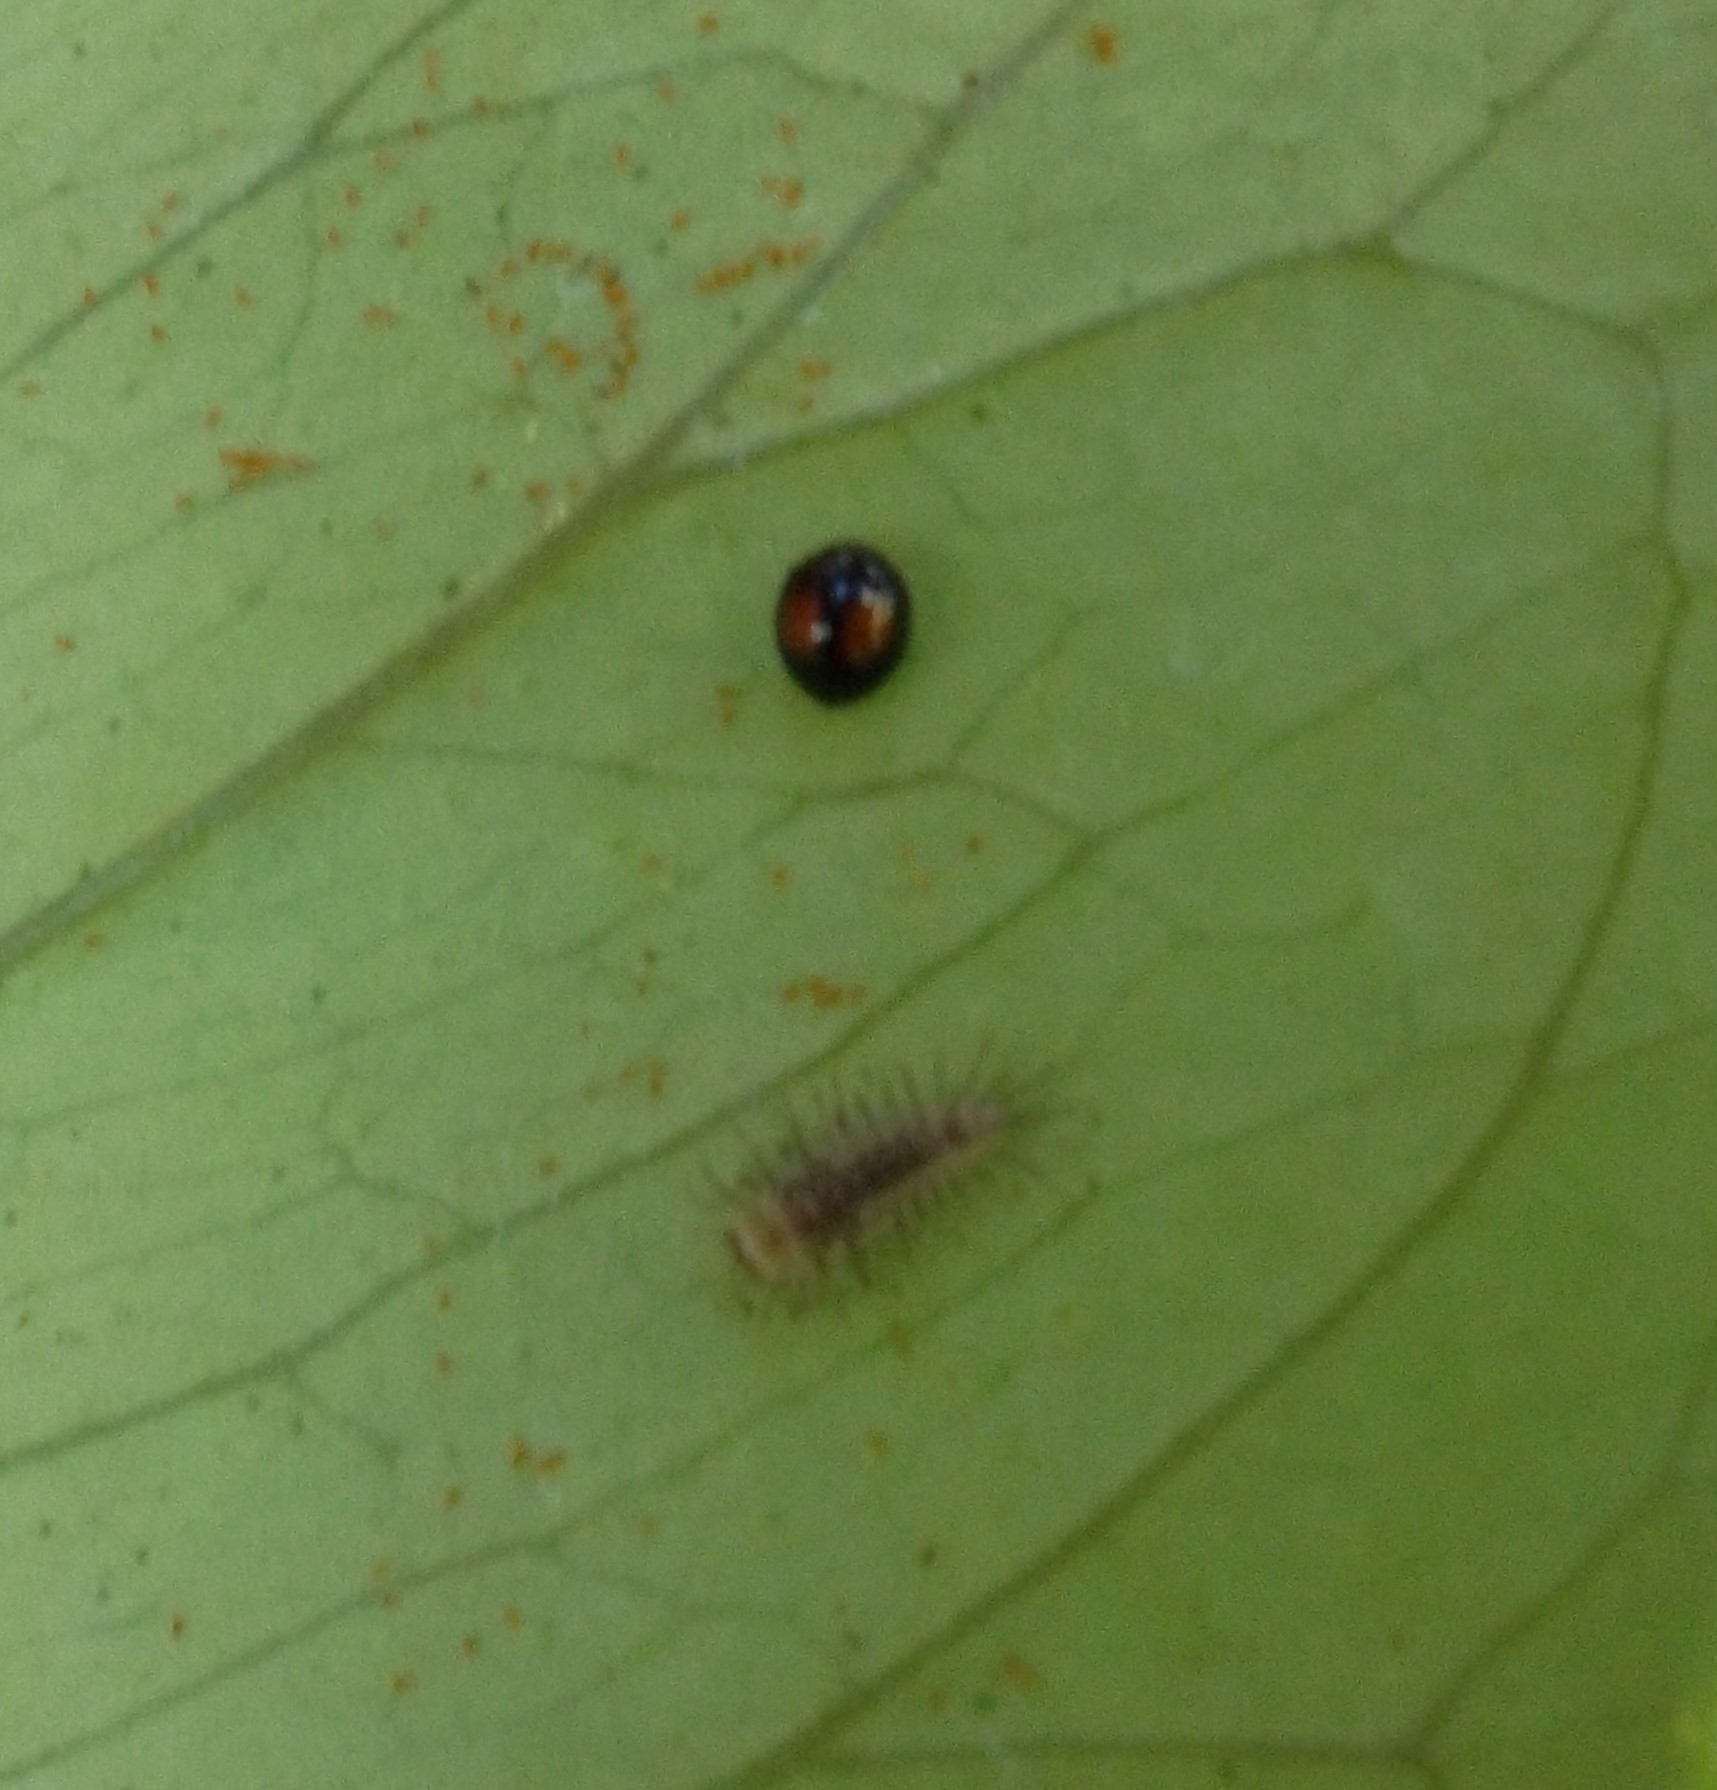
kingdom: Animalia
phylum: Arthropoda
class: Insecta
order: Coleoptera
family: Coccinellidae
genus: Serangium
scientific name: Serangium maculigerum
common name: Lady beetle
